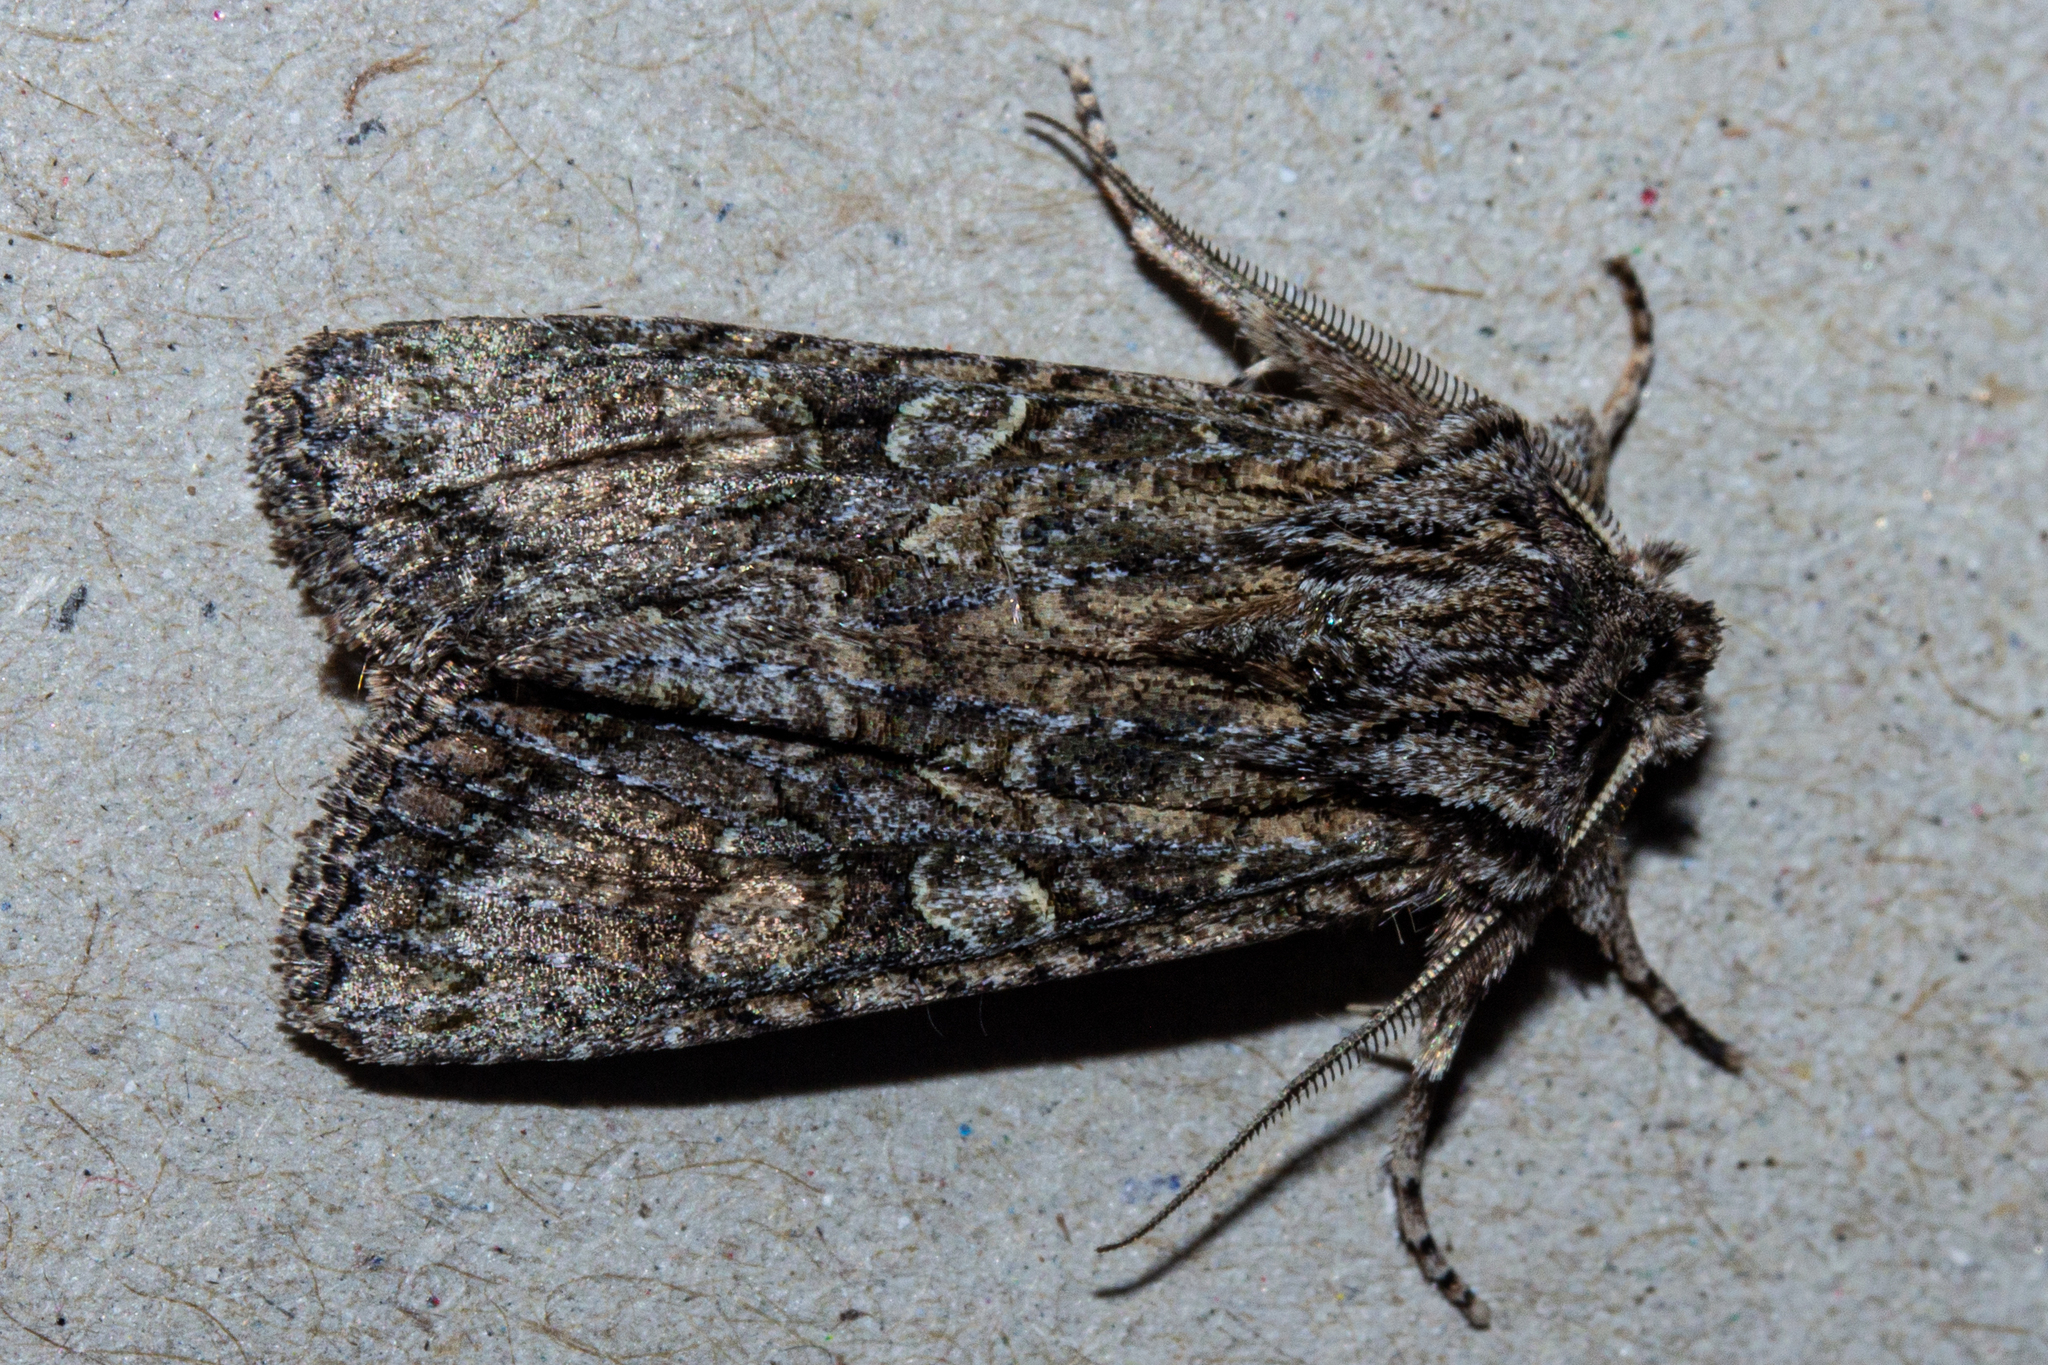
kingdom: Animalia
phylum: Arthropoda
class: Insecta
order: Lepidoptera
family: Noctuidae
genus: Ichneutica
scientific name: Ichneutica mutans
